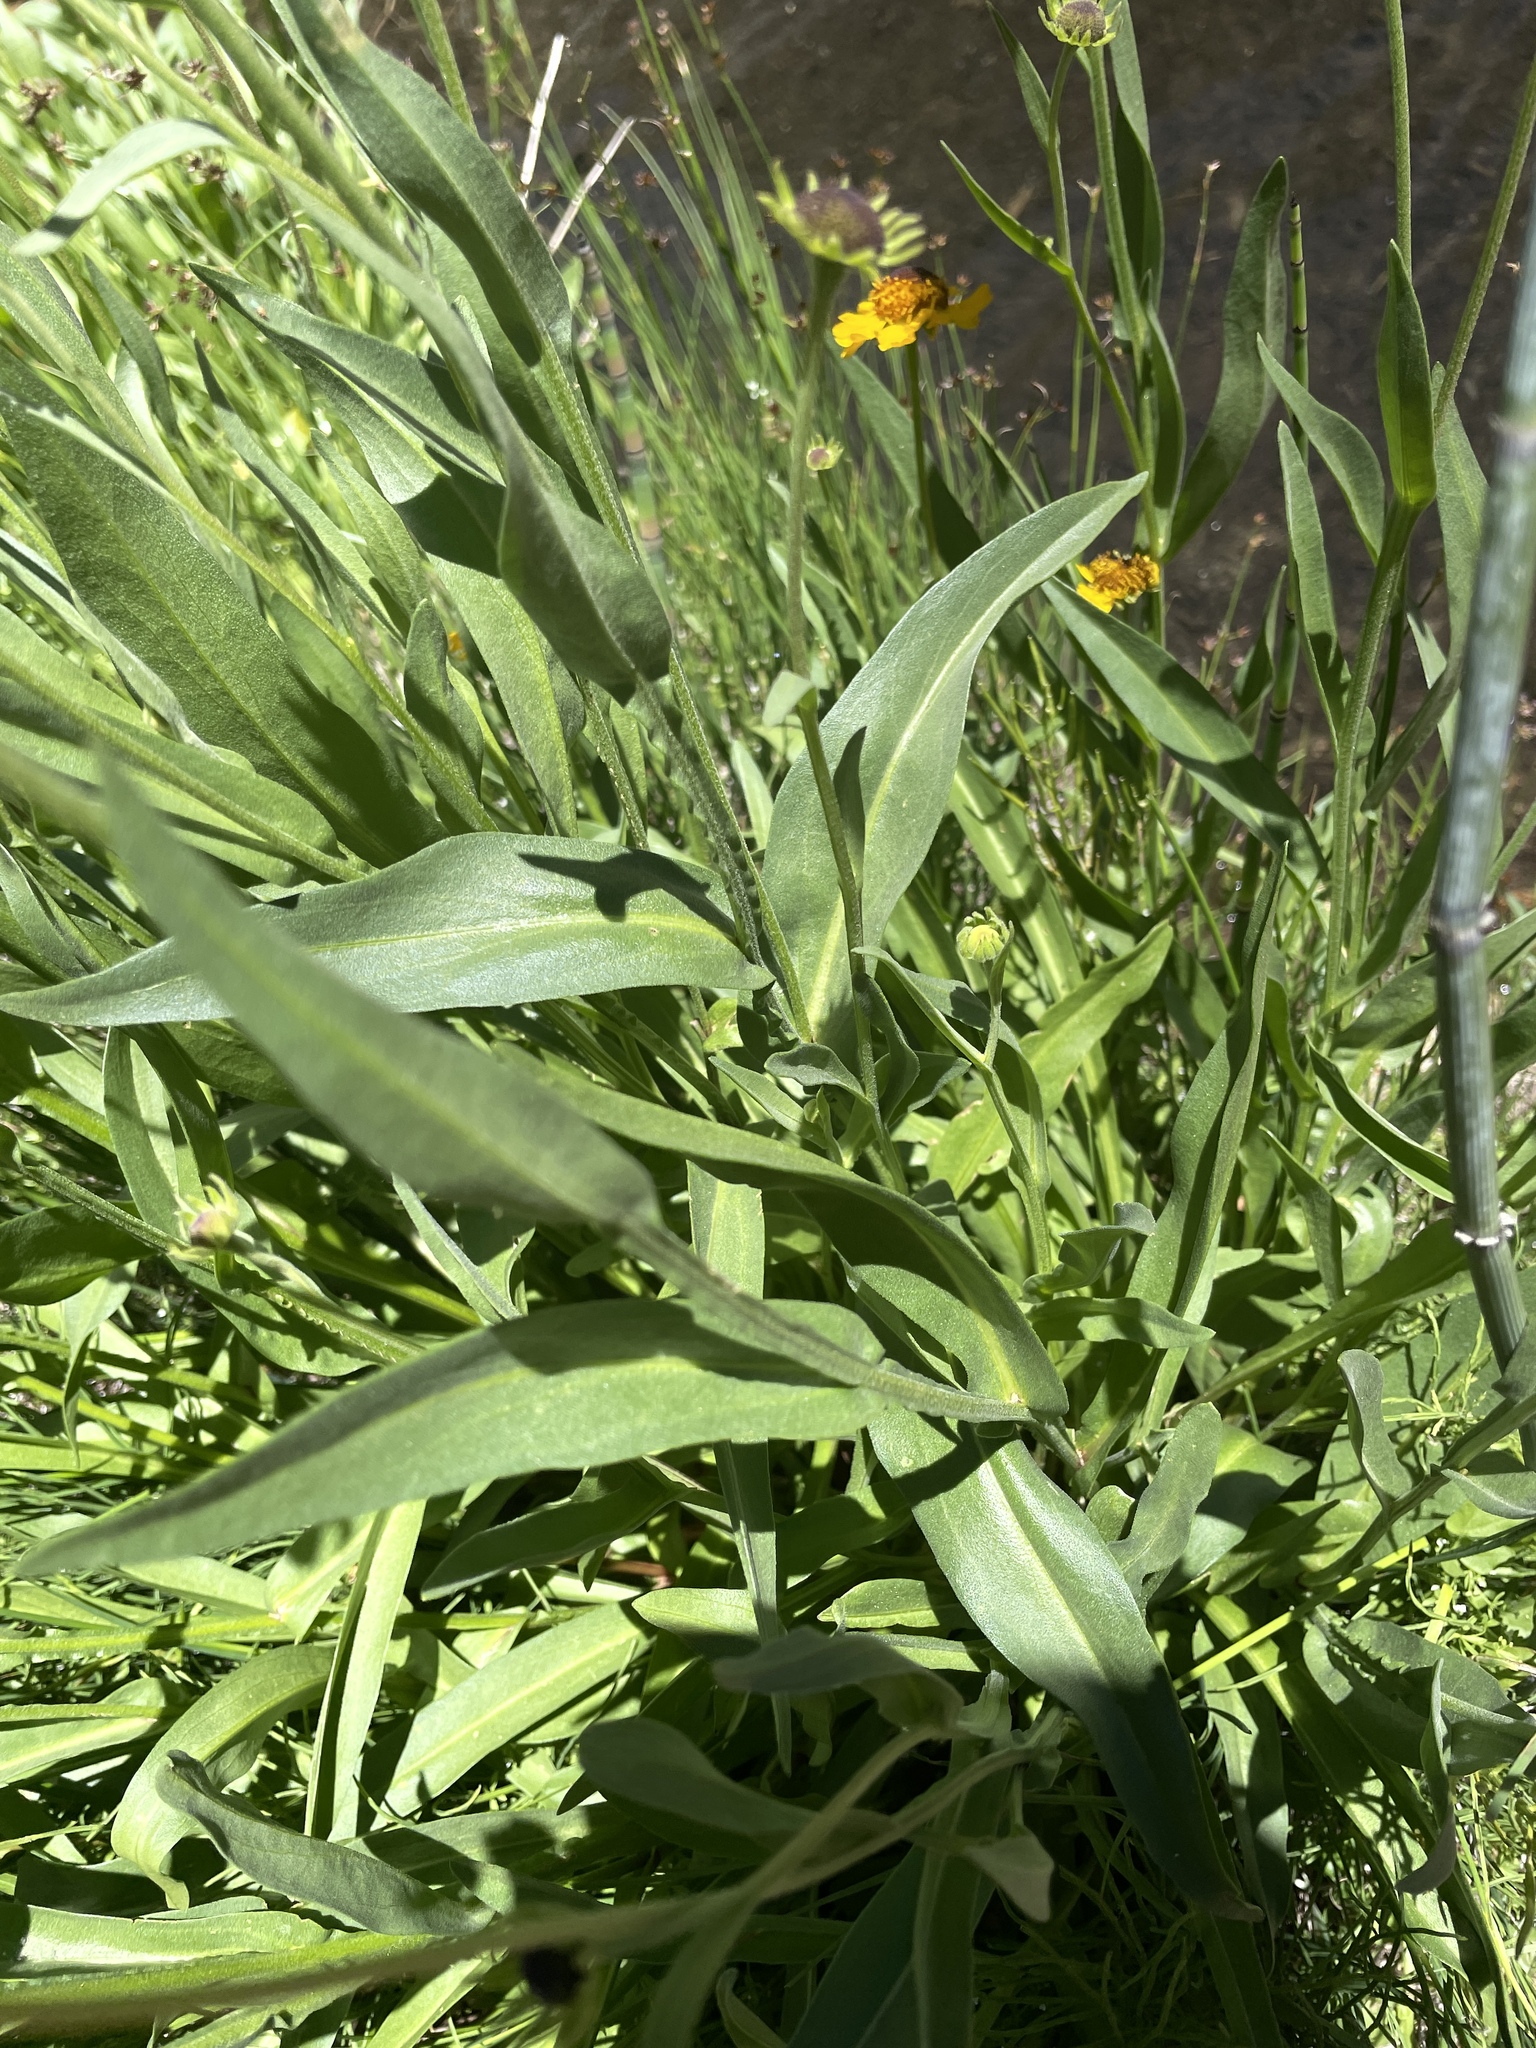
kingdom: Plantae
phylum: Tracheophyta
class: Magnoliopsida
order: Asterales
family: Asteraceae
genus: Helenium
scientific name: Helenium bigelovii
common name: Bigelow's sneezeweed
